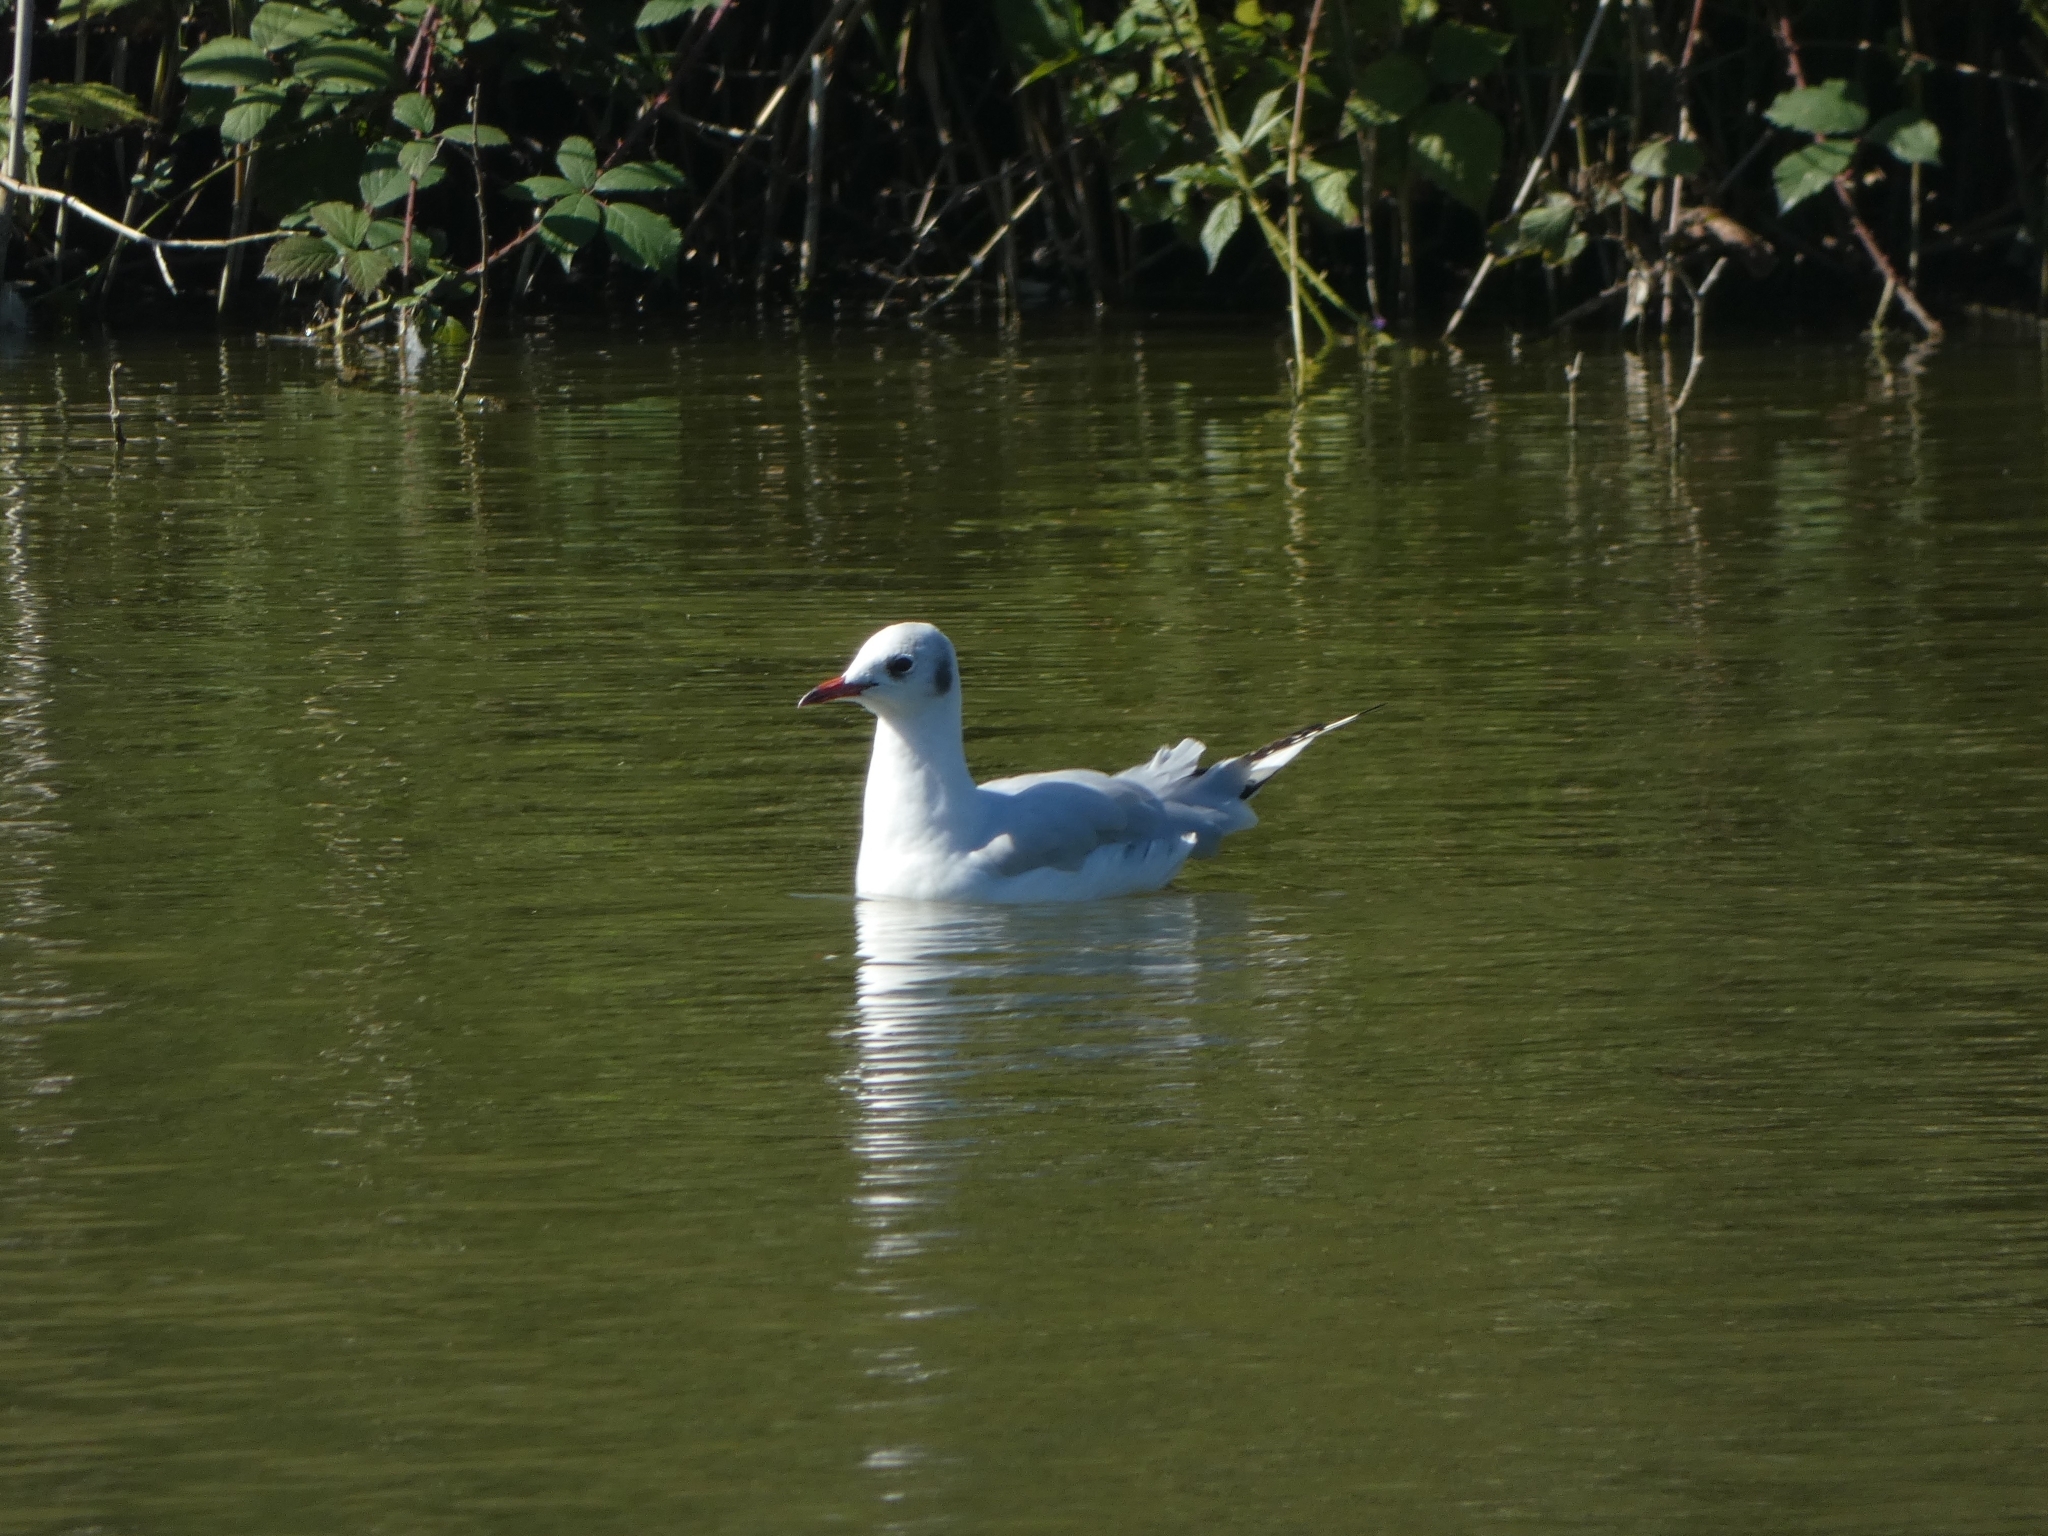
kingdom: Animalia
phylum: Chordata
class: Aves
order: Charadriiformes
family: Laridae
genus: Chroicocephalus
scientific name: Chroicocephalus ridibundus
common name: Black-headed gull
